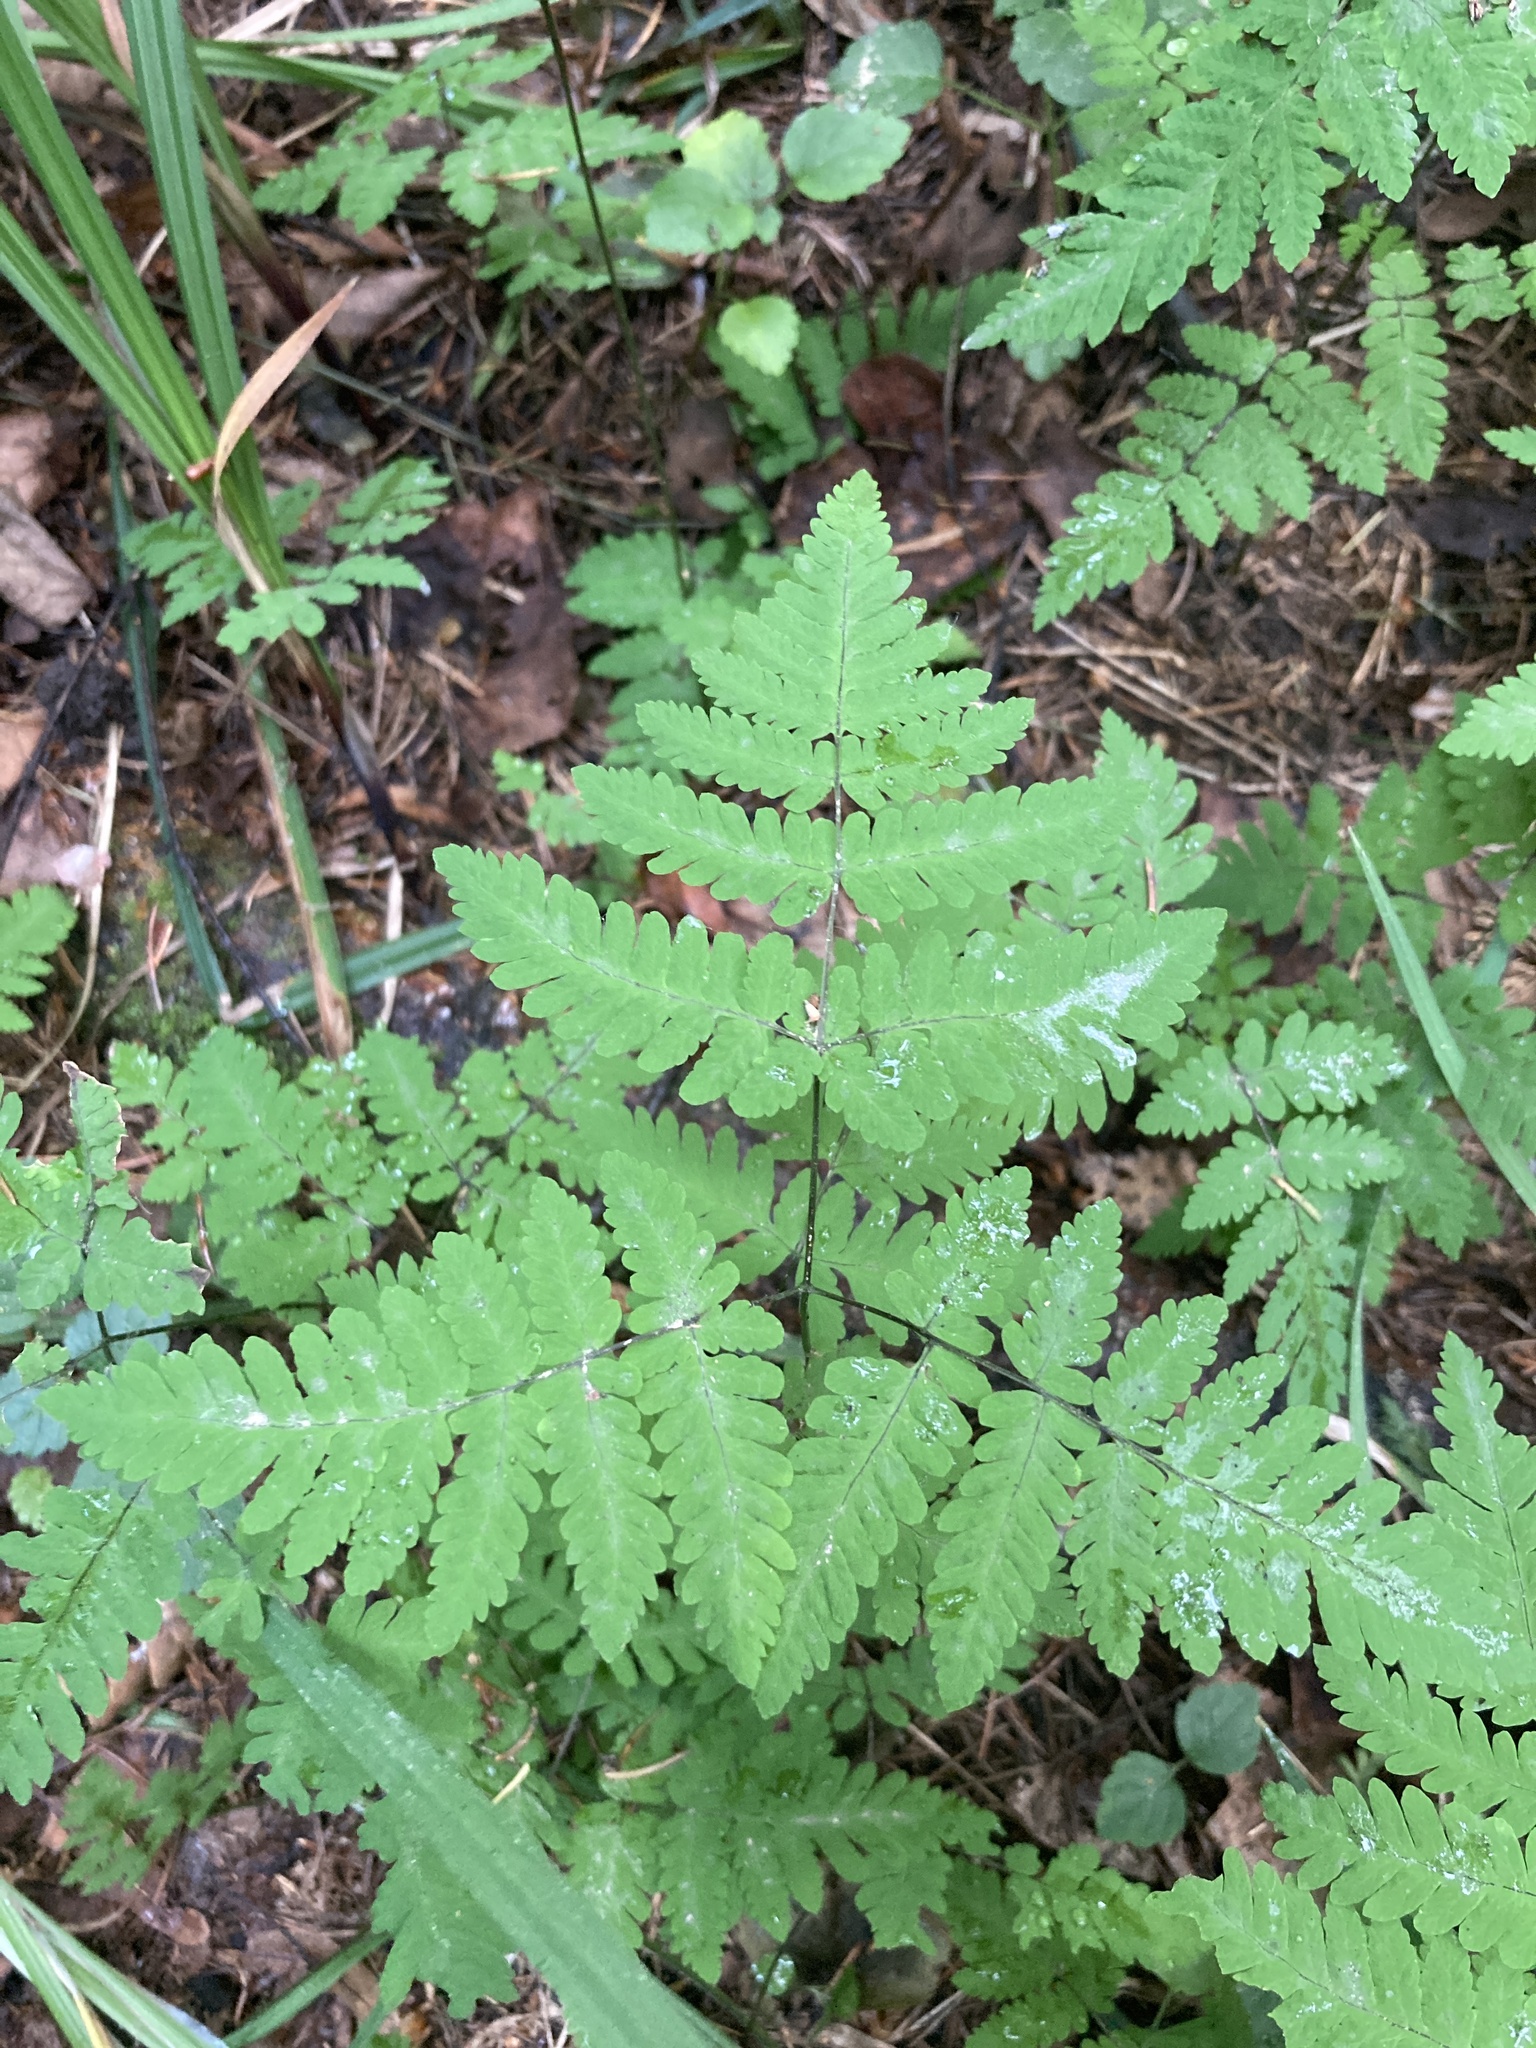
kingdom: Plantae
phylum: Tracheophyta
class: Polypodiopsida
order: Polypodiales
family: Cystopteridaceae
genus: Gymnocarpium
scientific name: Gymnocarpium dryopteris
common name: Oak fern
